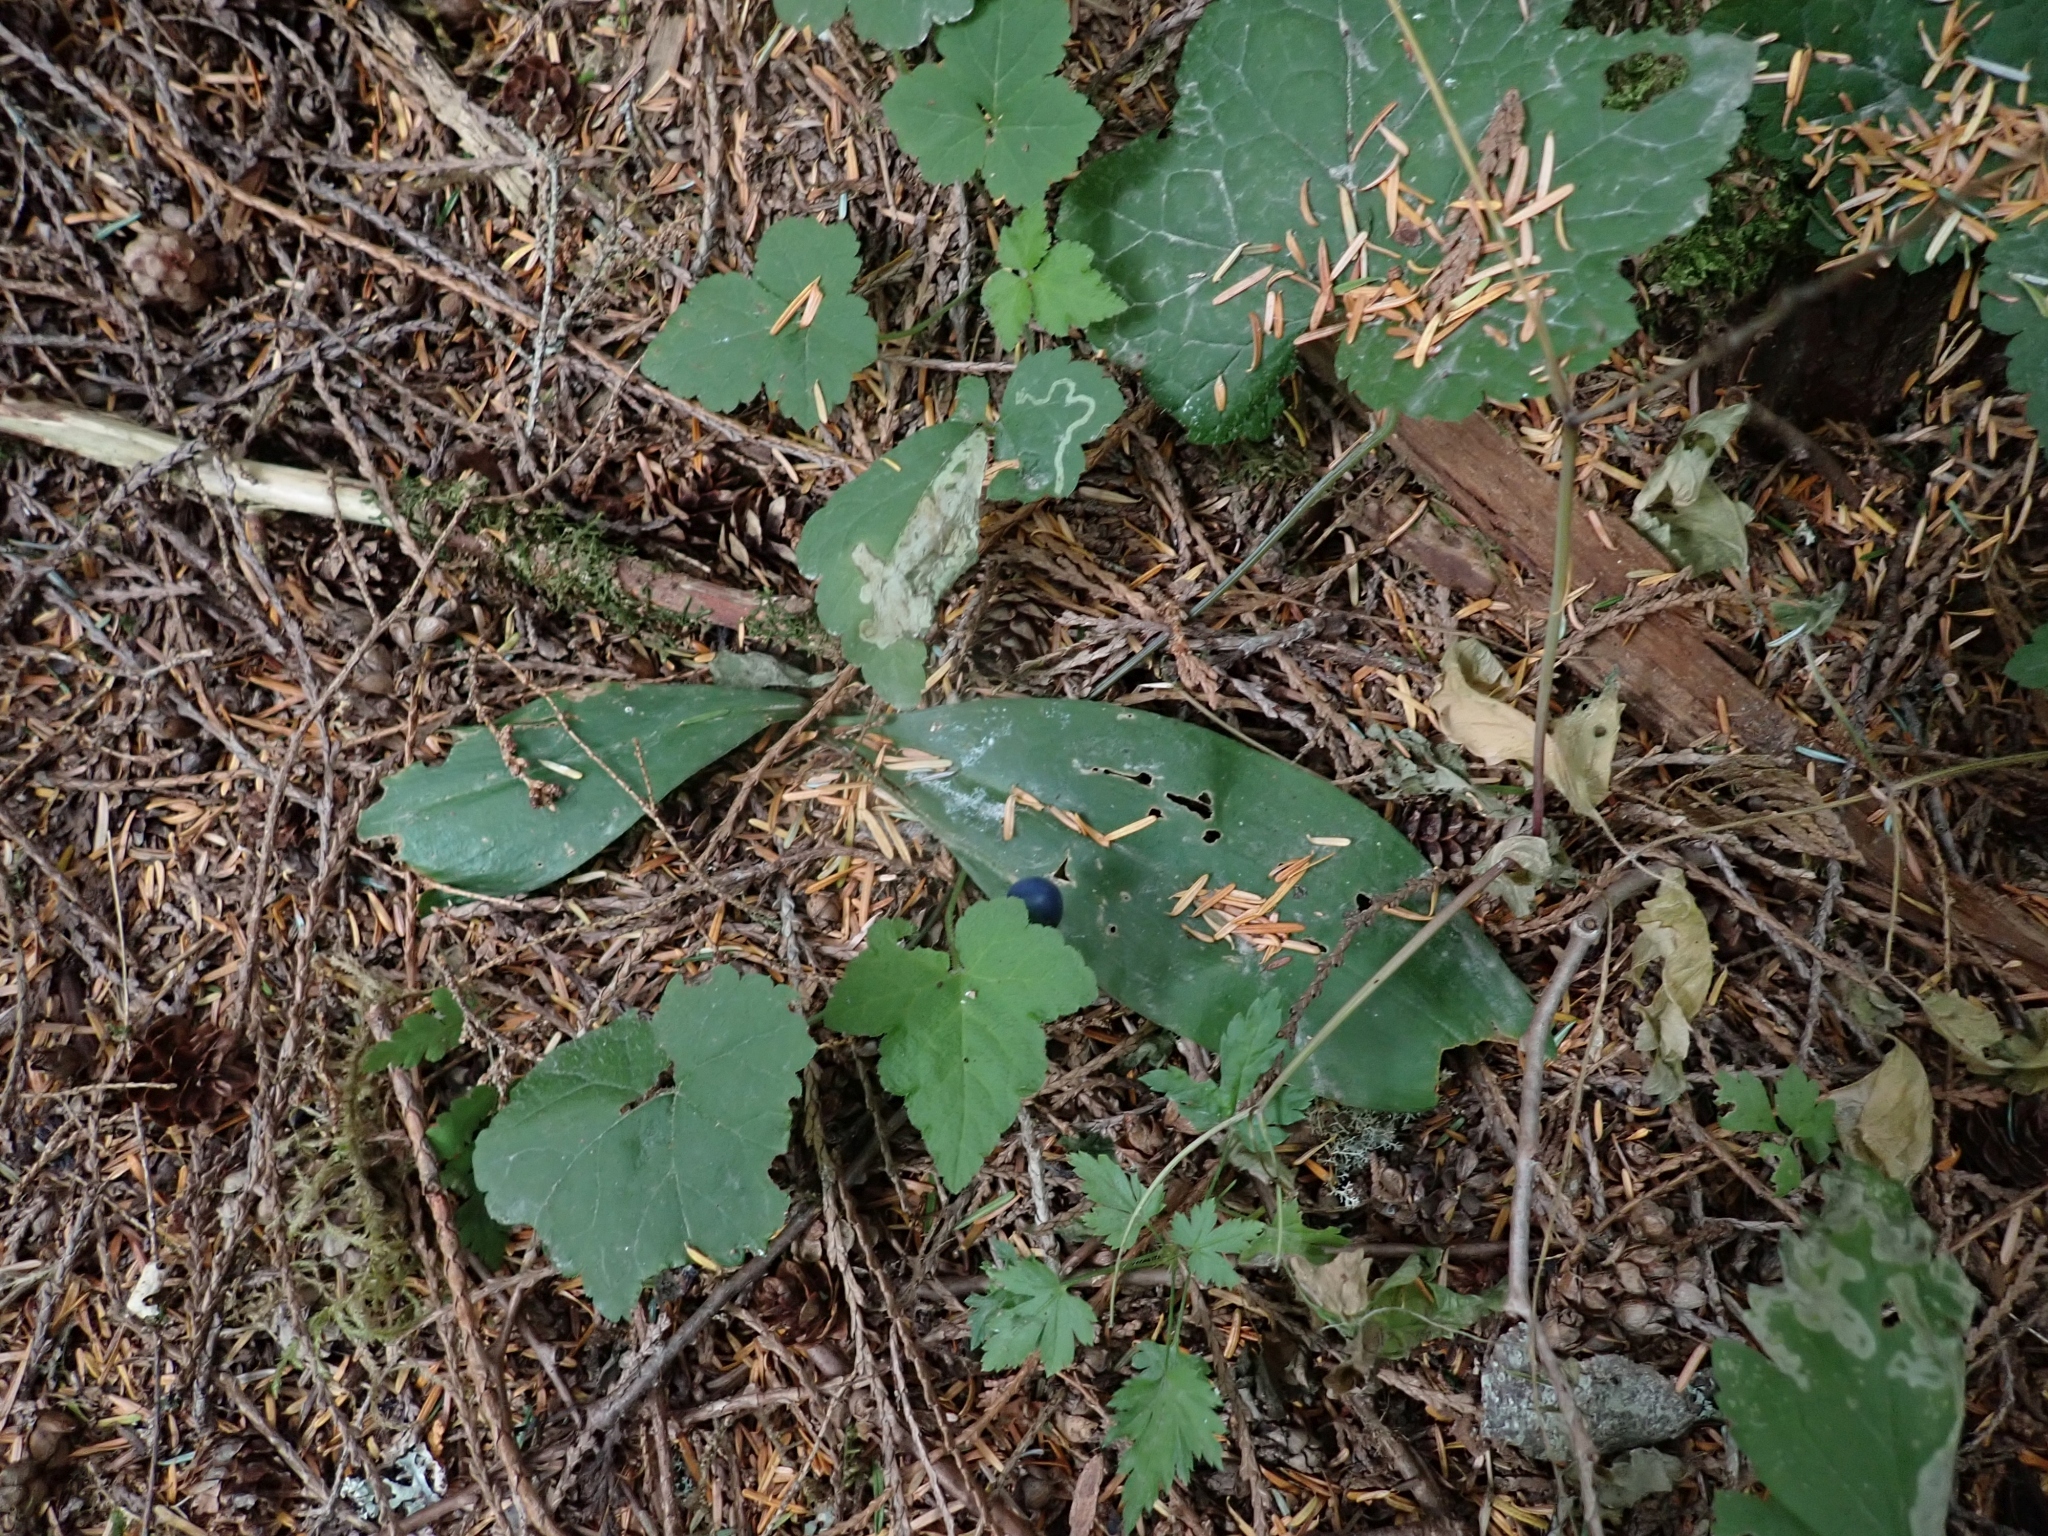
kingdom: Plantae
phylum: Tracheophyta
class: Liliopsida
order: Liliales
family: Liliaceae
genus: Clintonia
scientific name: Clintonia uniflora
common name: Queen's cup
